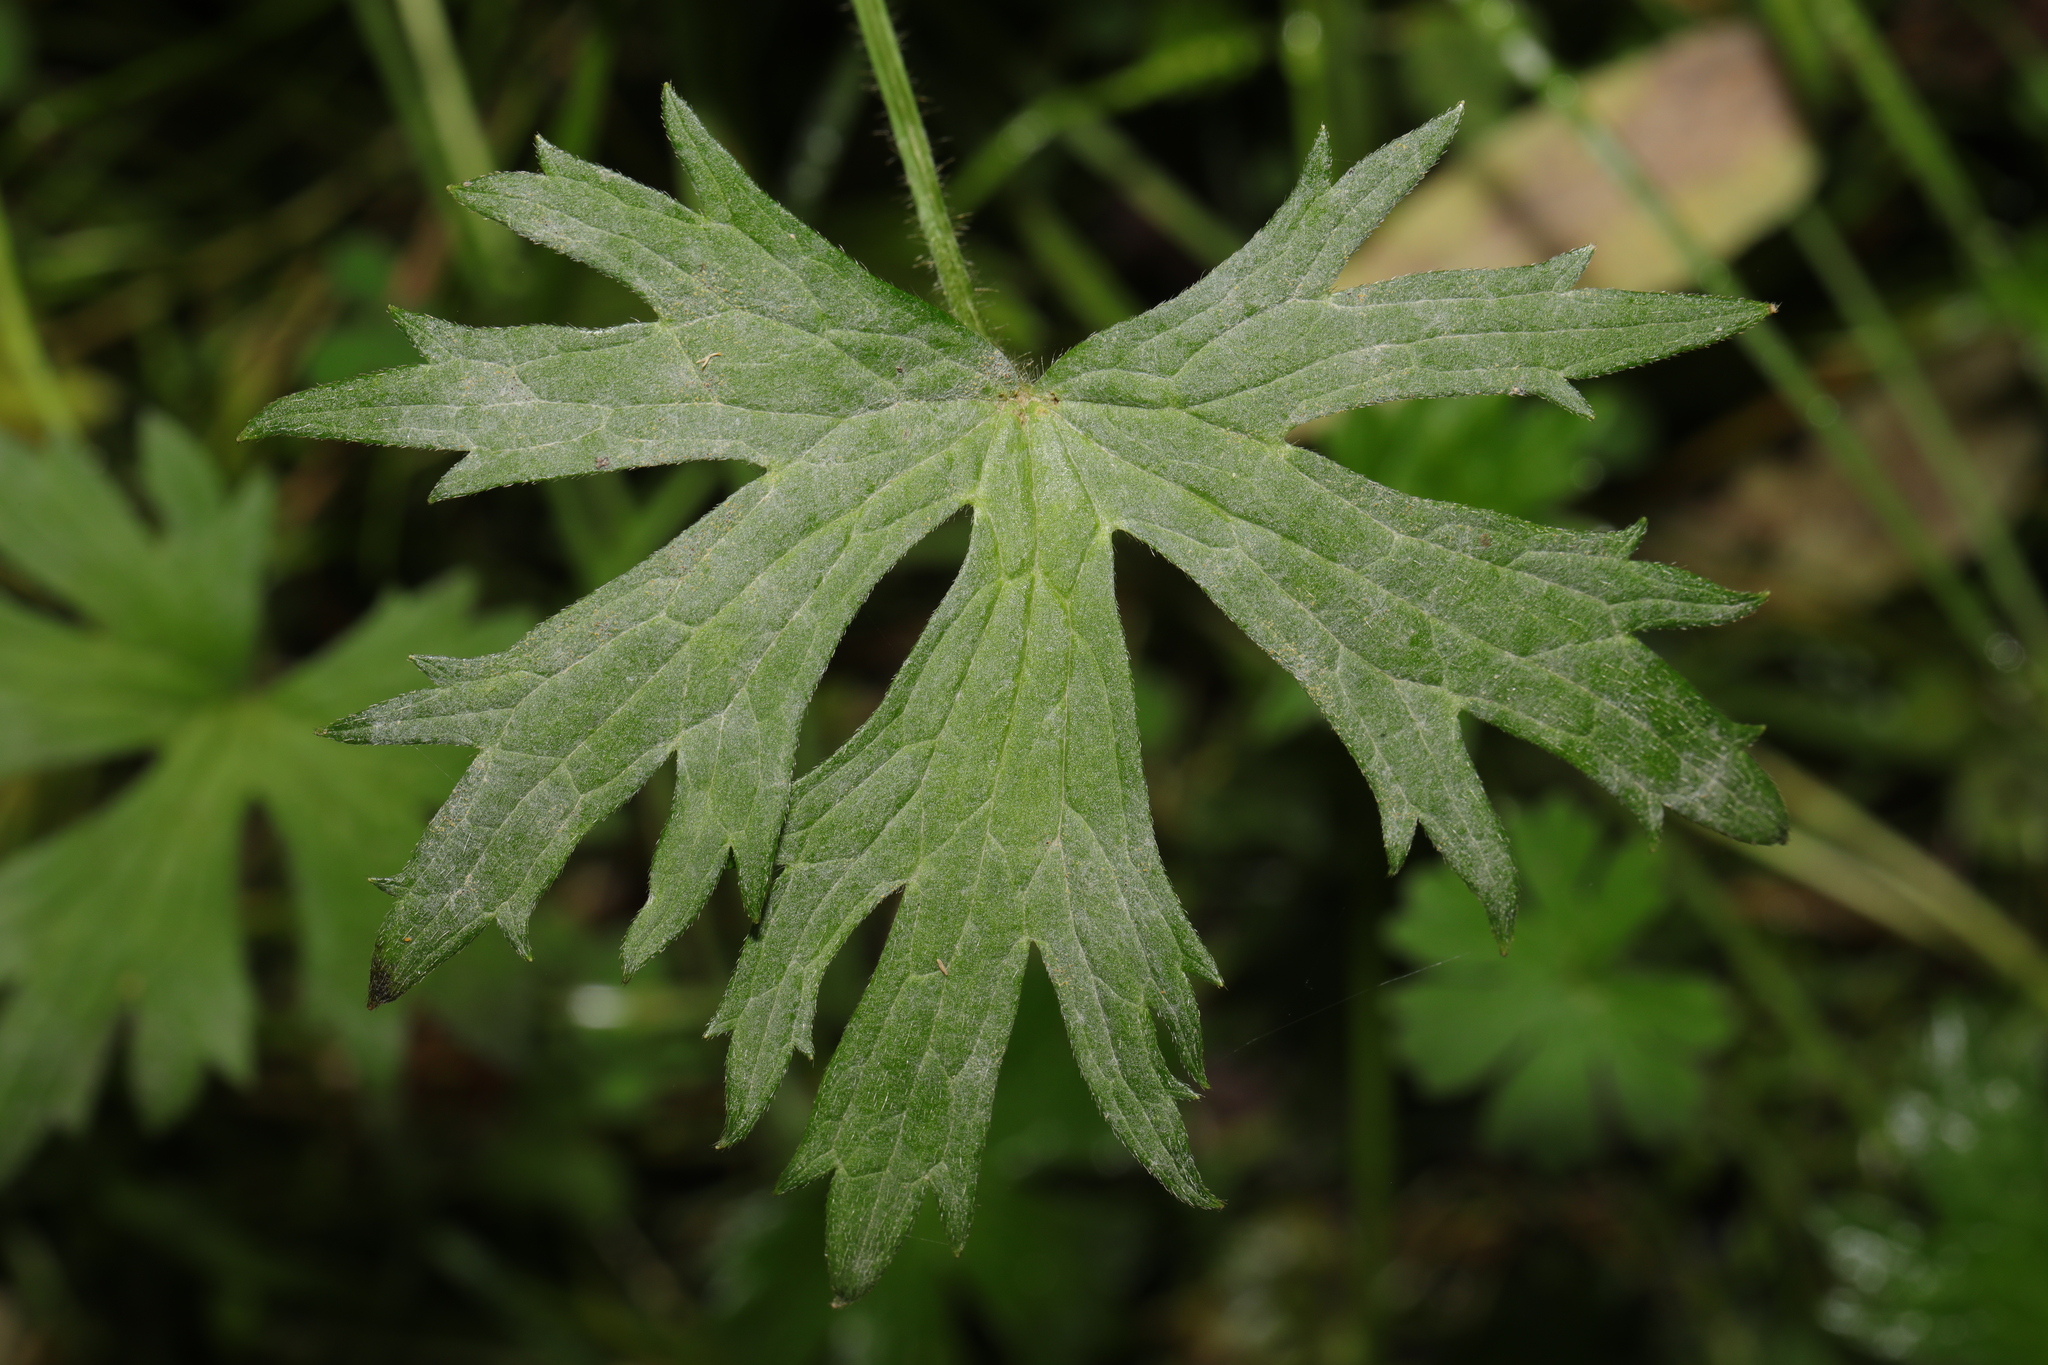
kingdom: Plantae
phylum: Tracheophyta
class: Magnoliopsida
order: Ranunculales
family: Ranunculaceae
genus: Ranunculus
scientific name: Ranunculus acris
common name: Meadow buttercup
